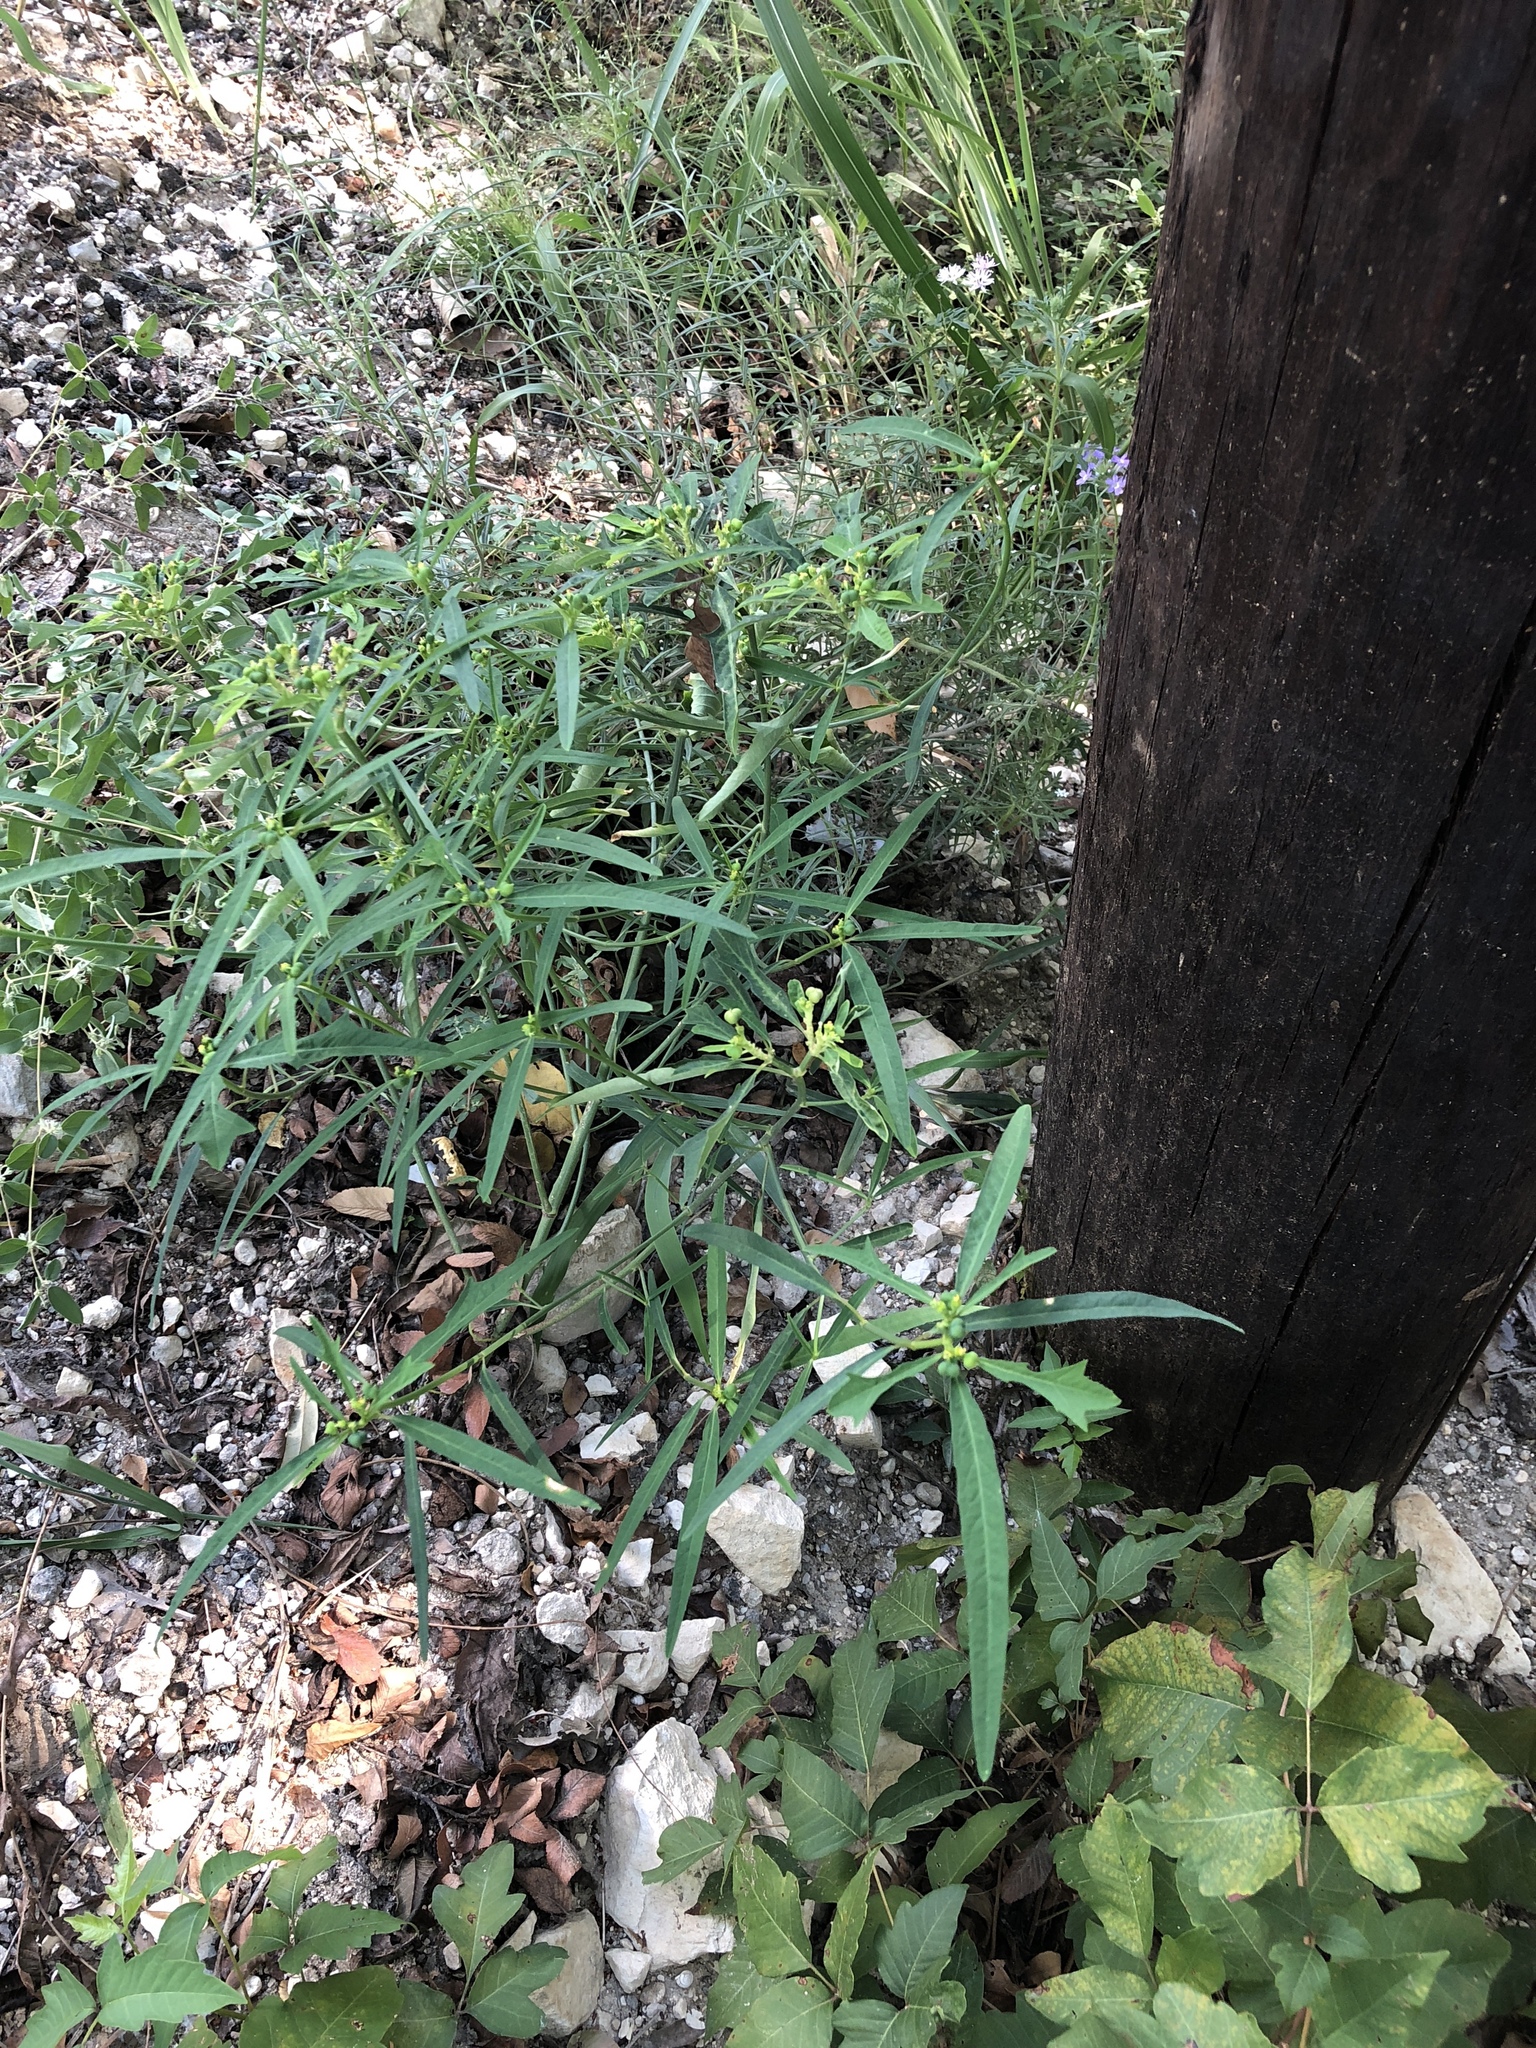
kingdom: Plantae
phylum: Tracheophyta
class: Magnoliopsida
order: Malpighiales
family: Euphorbiaceae
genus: Euphorbia
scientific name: Euphorbia heterophylla
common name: Mexican fireplant
